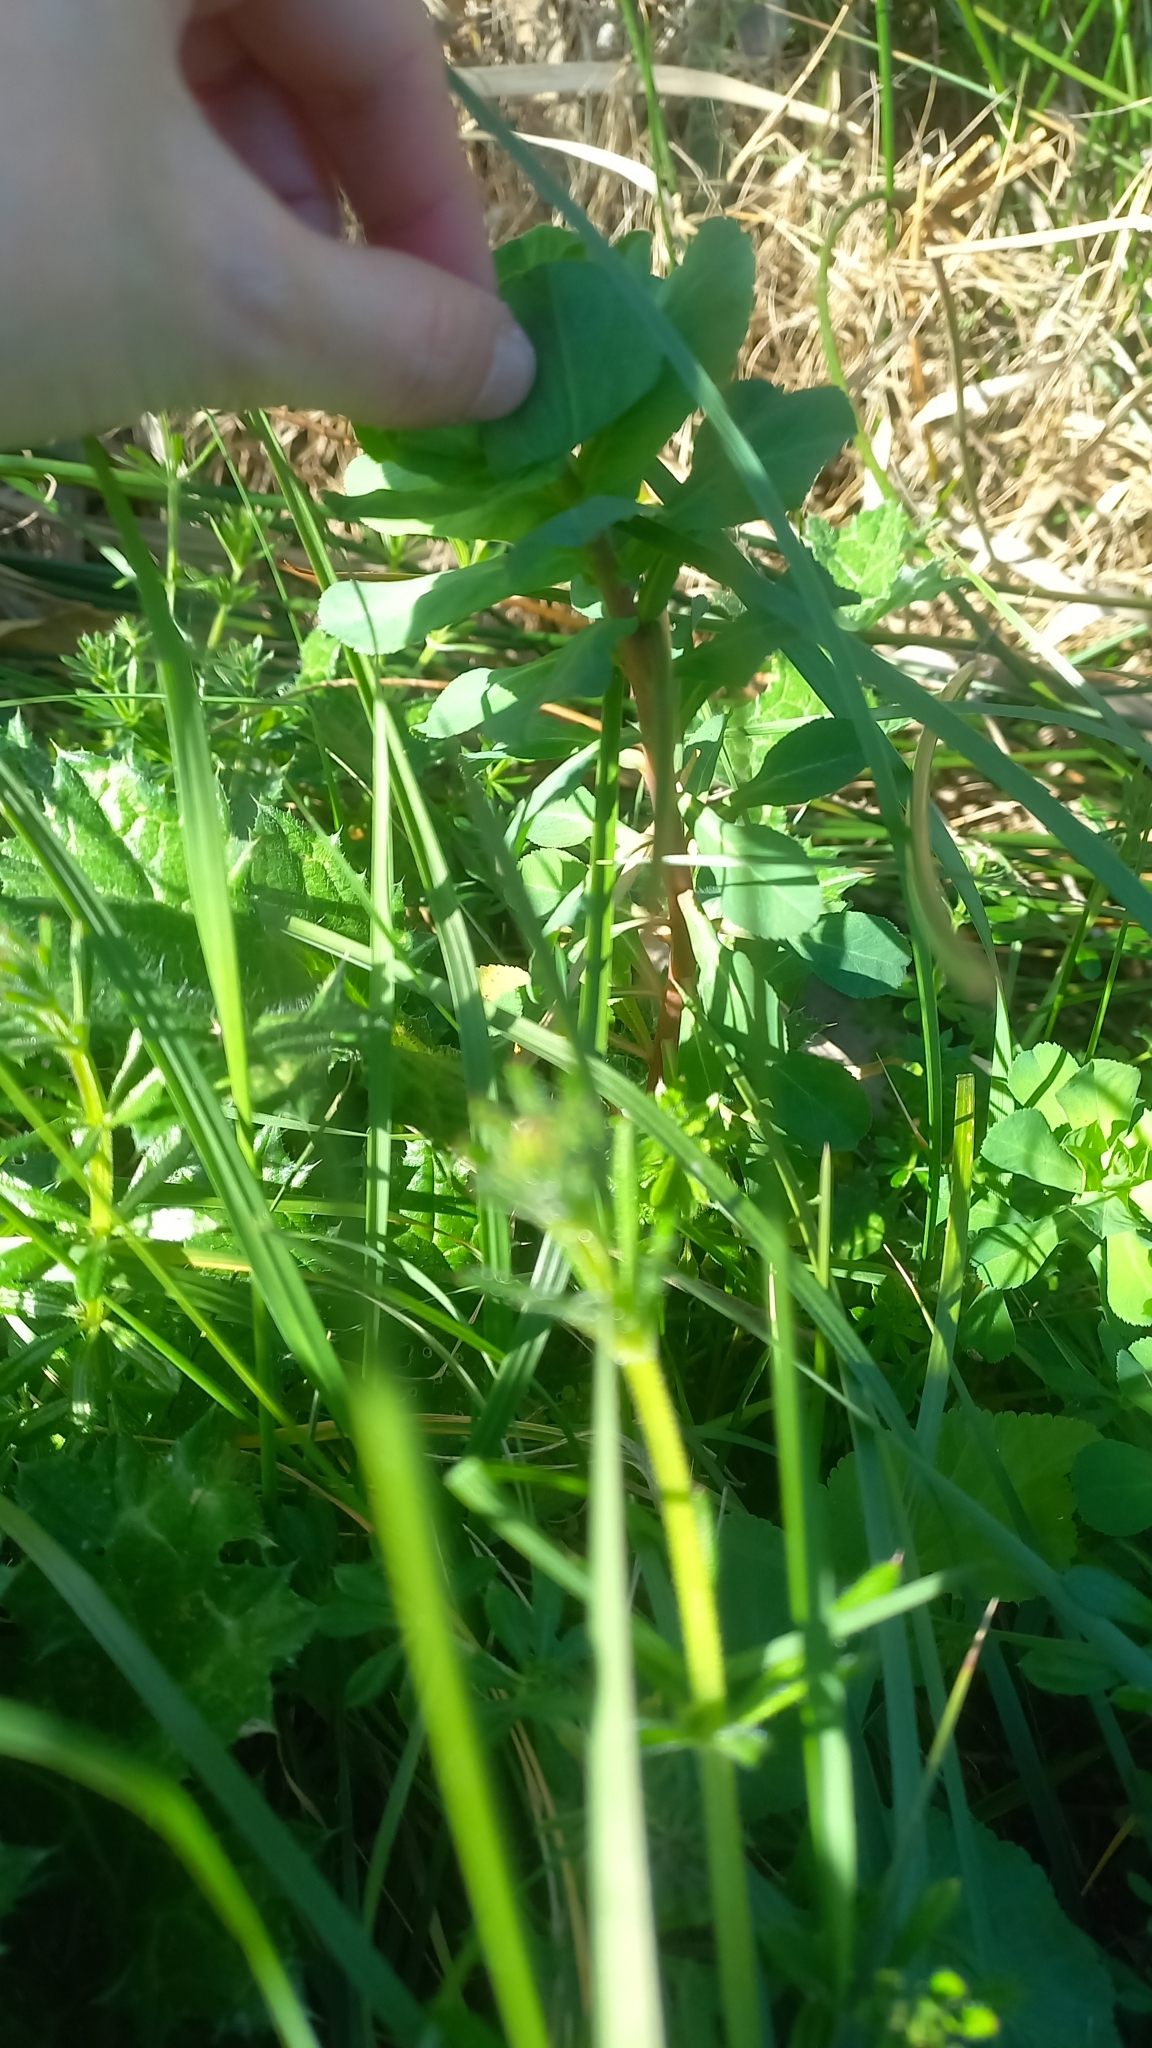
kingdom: Plantae
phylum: Tracheophyta
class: Magnoliopsida
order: Malpighiales
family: Euphorbiaceae
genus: Euphorbia
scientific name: Euphorbia helioscopia
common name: Sun spurge
